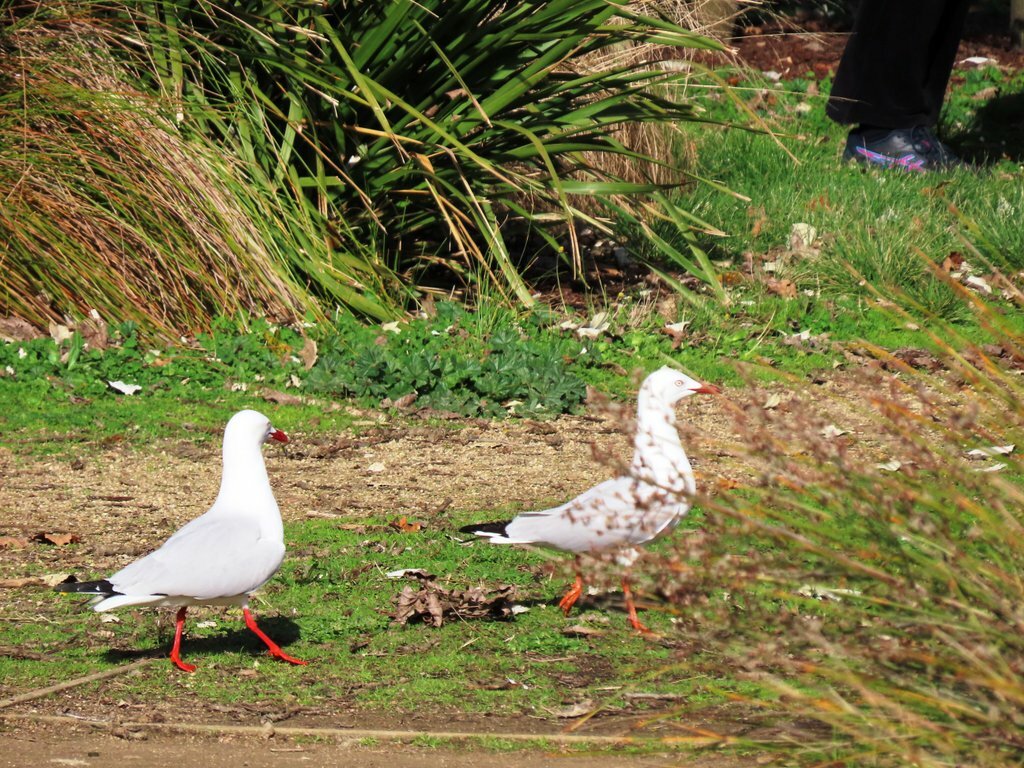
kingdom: Animalia
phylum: Chordata
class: Aves
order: Charadriiformes
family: Laridae
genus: Chroicocephalus
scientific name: Chroicocephalus novaehollandiae
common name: Silver gull
